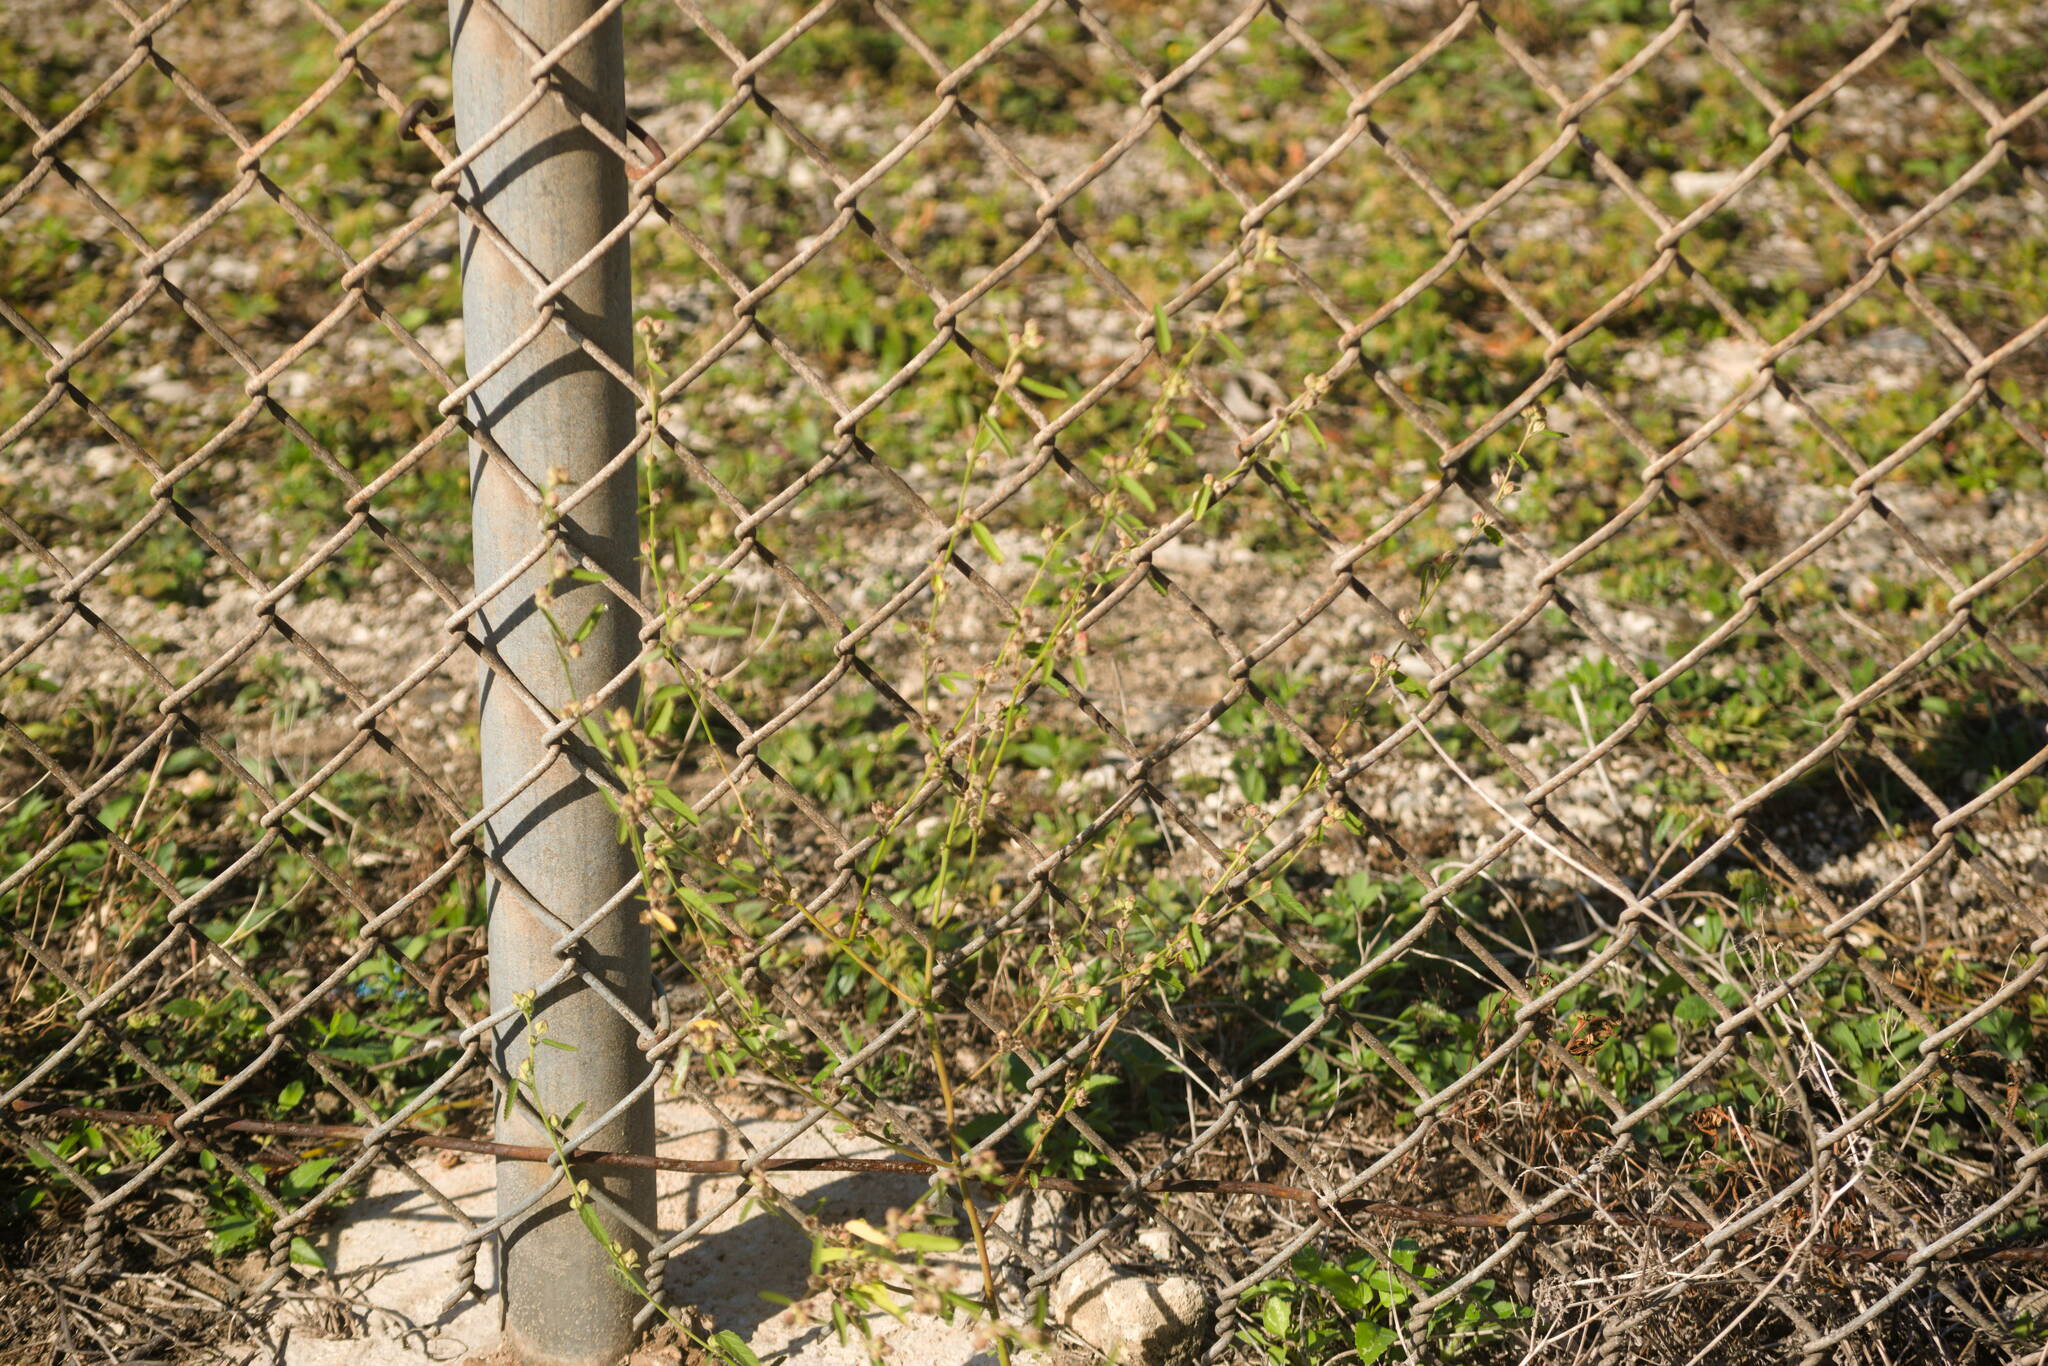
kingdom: Plantae
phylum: Tracheophyta
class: Magnoliopsida
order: Malvales
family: Malvaceae
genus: Sida
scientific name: Sida spinosa
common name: Prickly fanpetals
